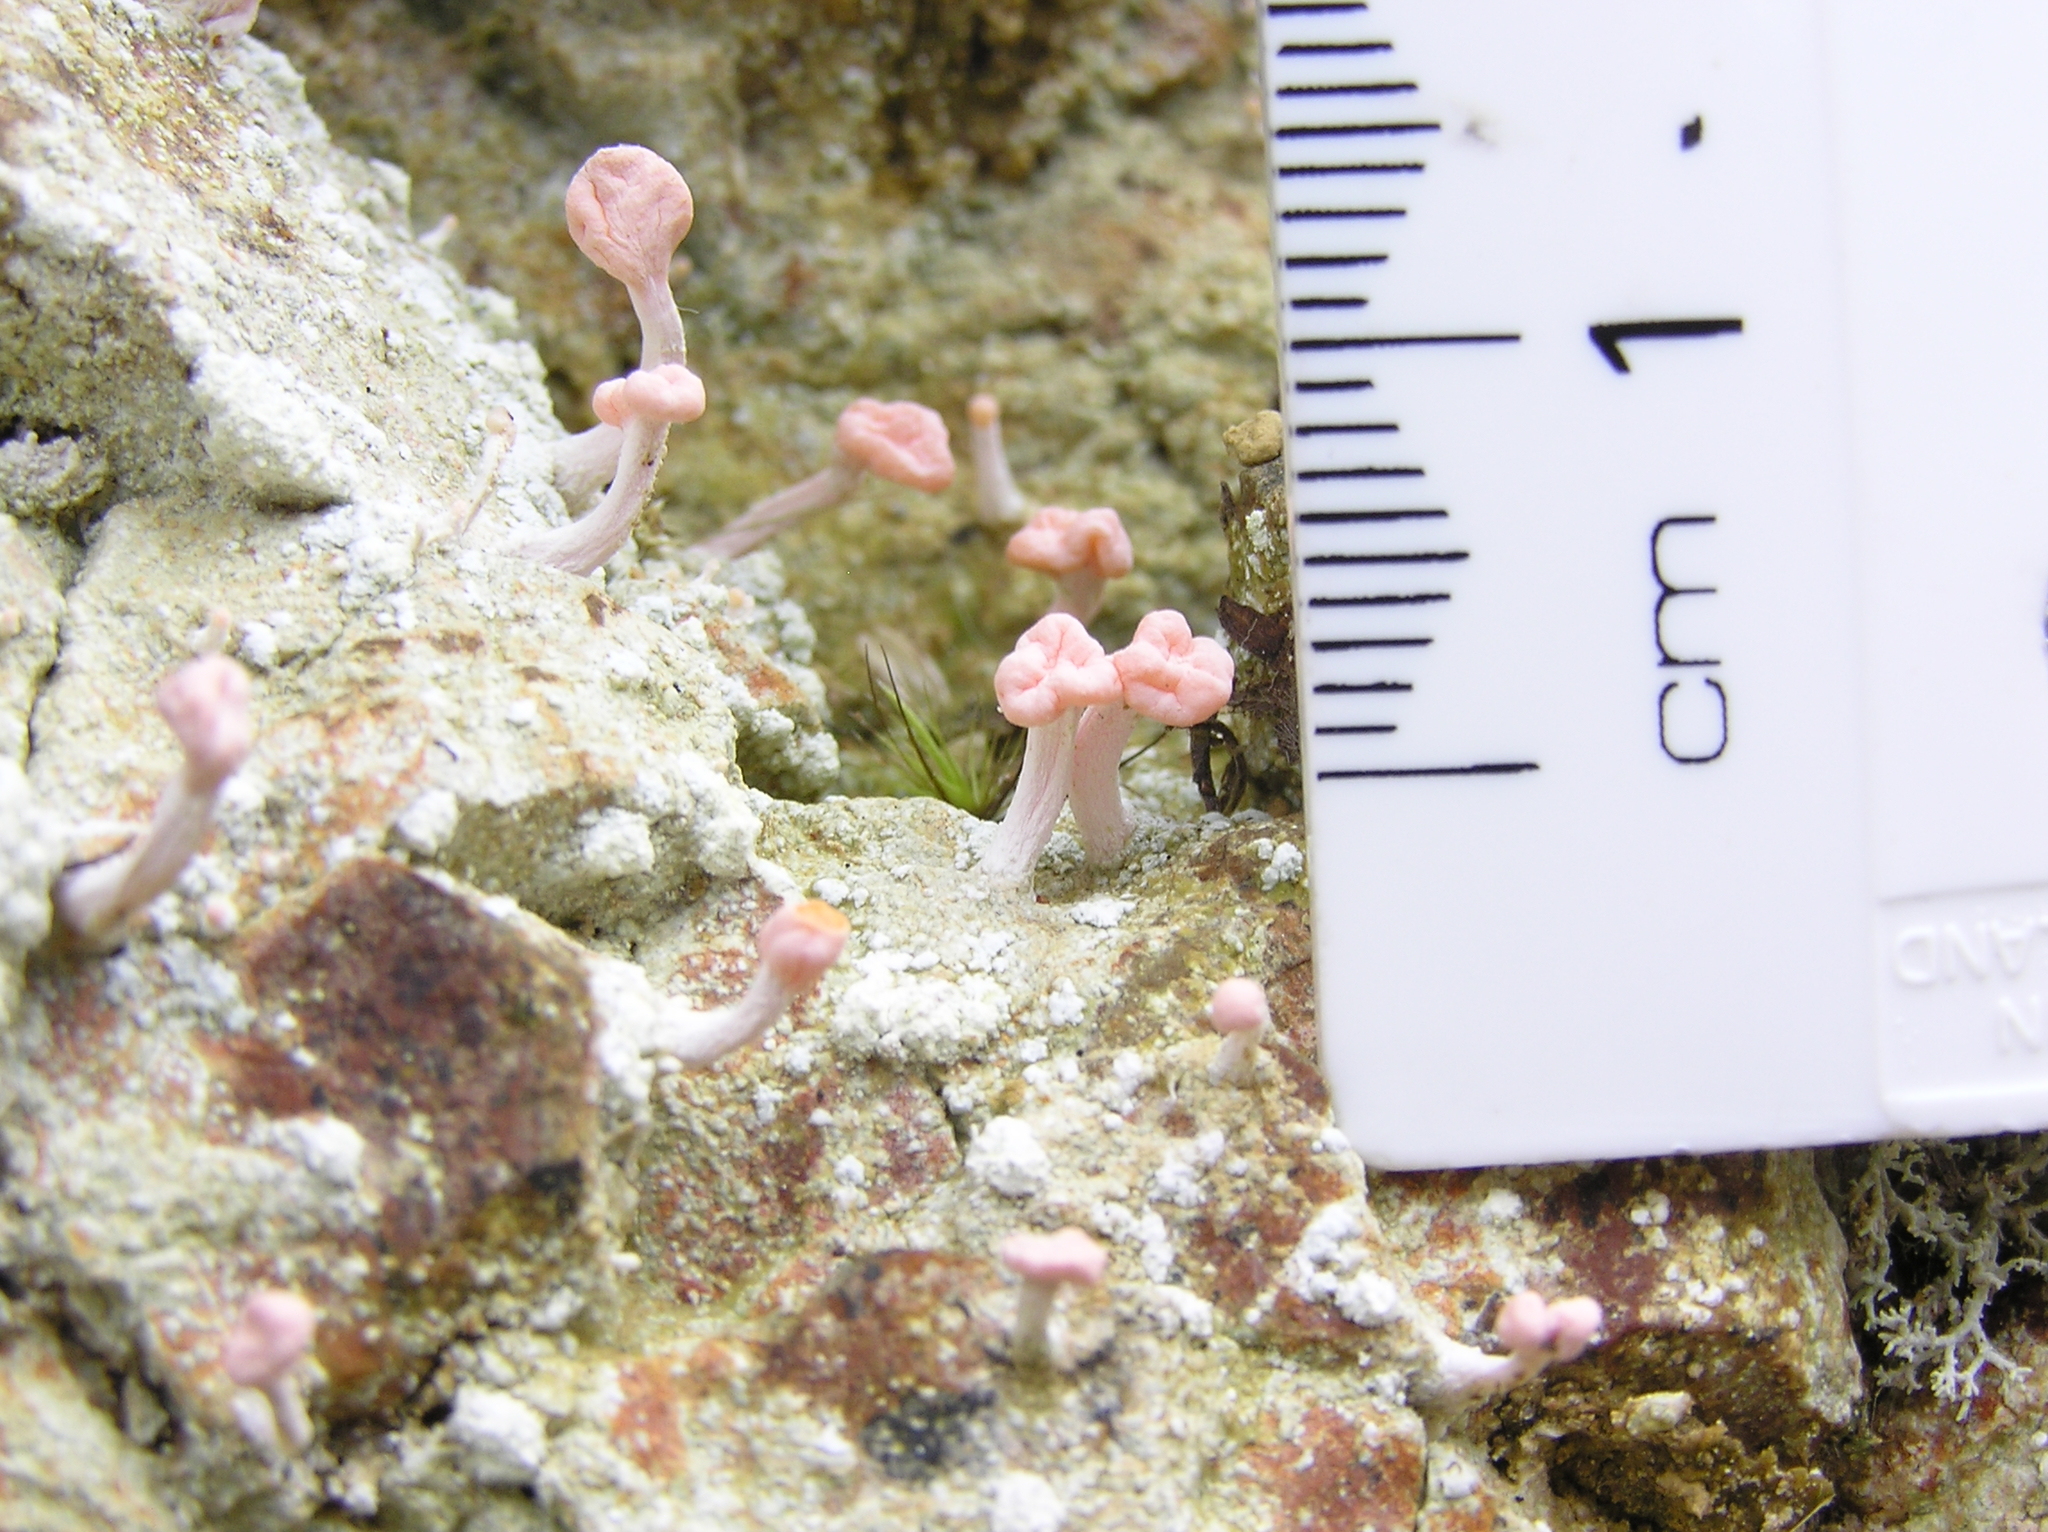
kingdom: Fungi
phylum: Ascomycota
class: Lecanoromycetes
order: Pertusariales
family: Icmadophilaceae
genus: Dibaeis
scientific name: Dibaeis arcuata
